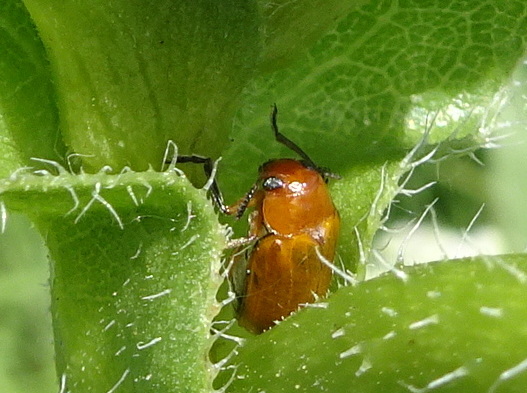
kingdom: Animalia
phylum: Arthropoda
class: Insecta
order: Coleoptera
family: Chrysomelidae
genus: Anomoea
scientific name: Anomoea laticlavia
